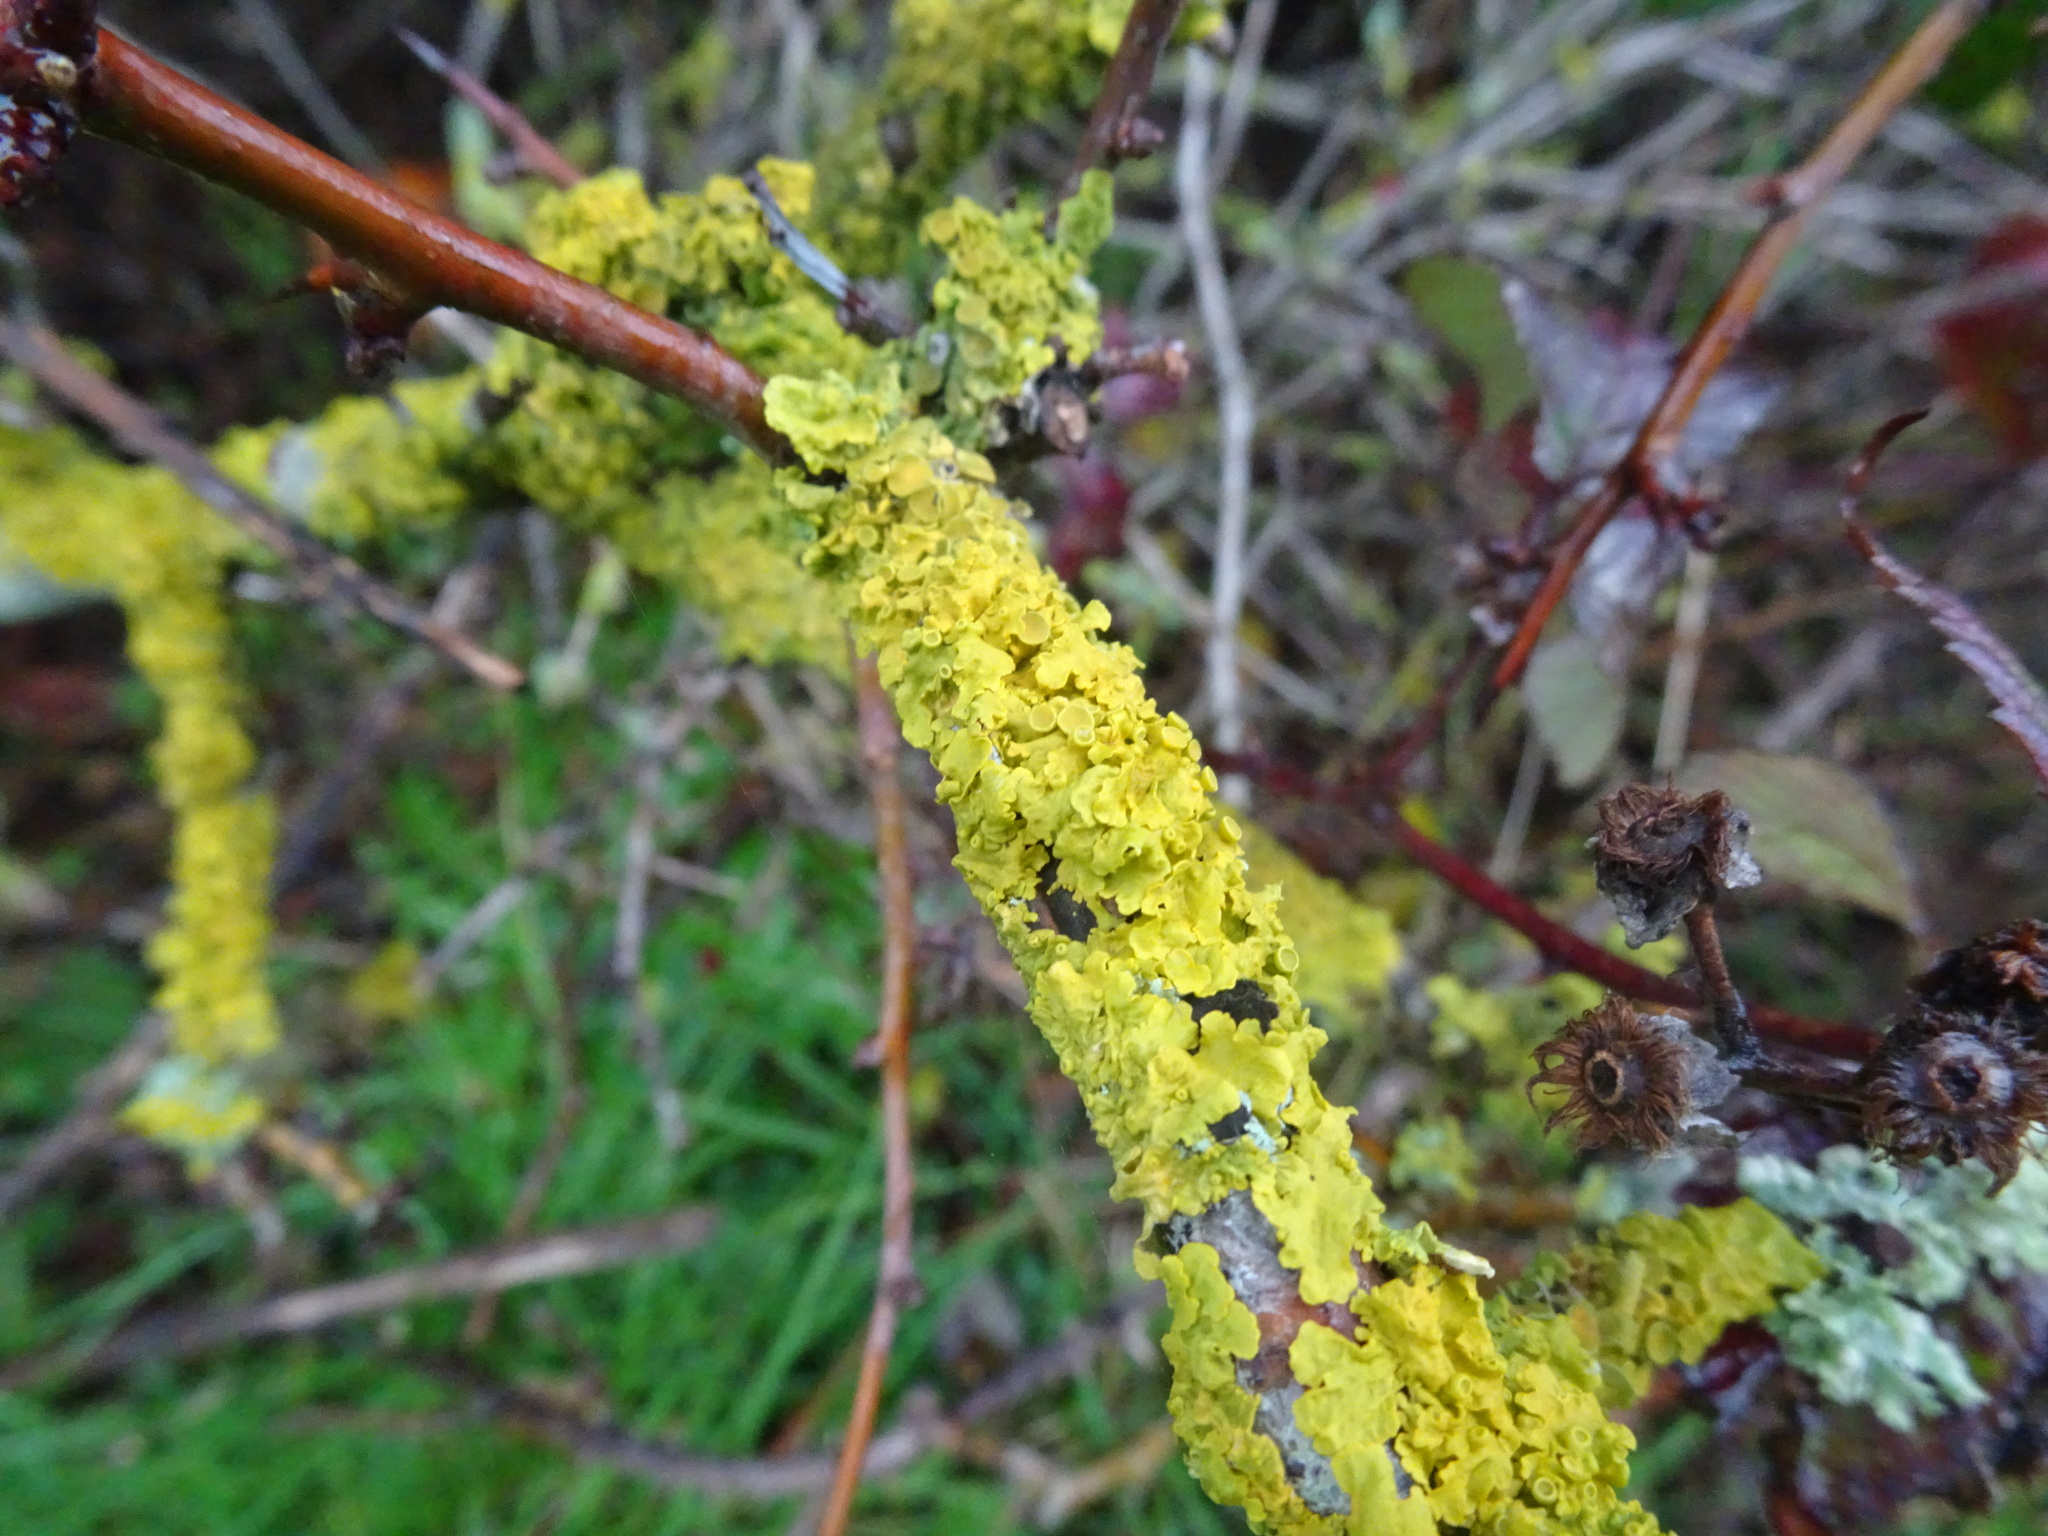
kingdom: Fungi
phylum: Ascomycota
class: Lecanoromycetes
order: Teloschistales
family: Teloschistaceae
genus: Xanthoria
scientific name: Xanthoria parietina
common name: Common orange lichen
